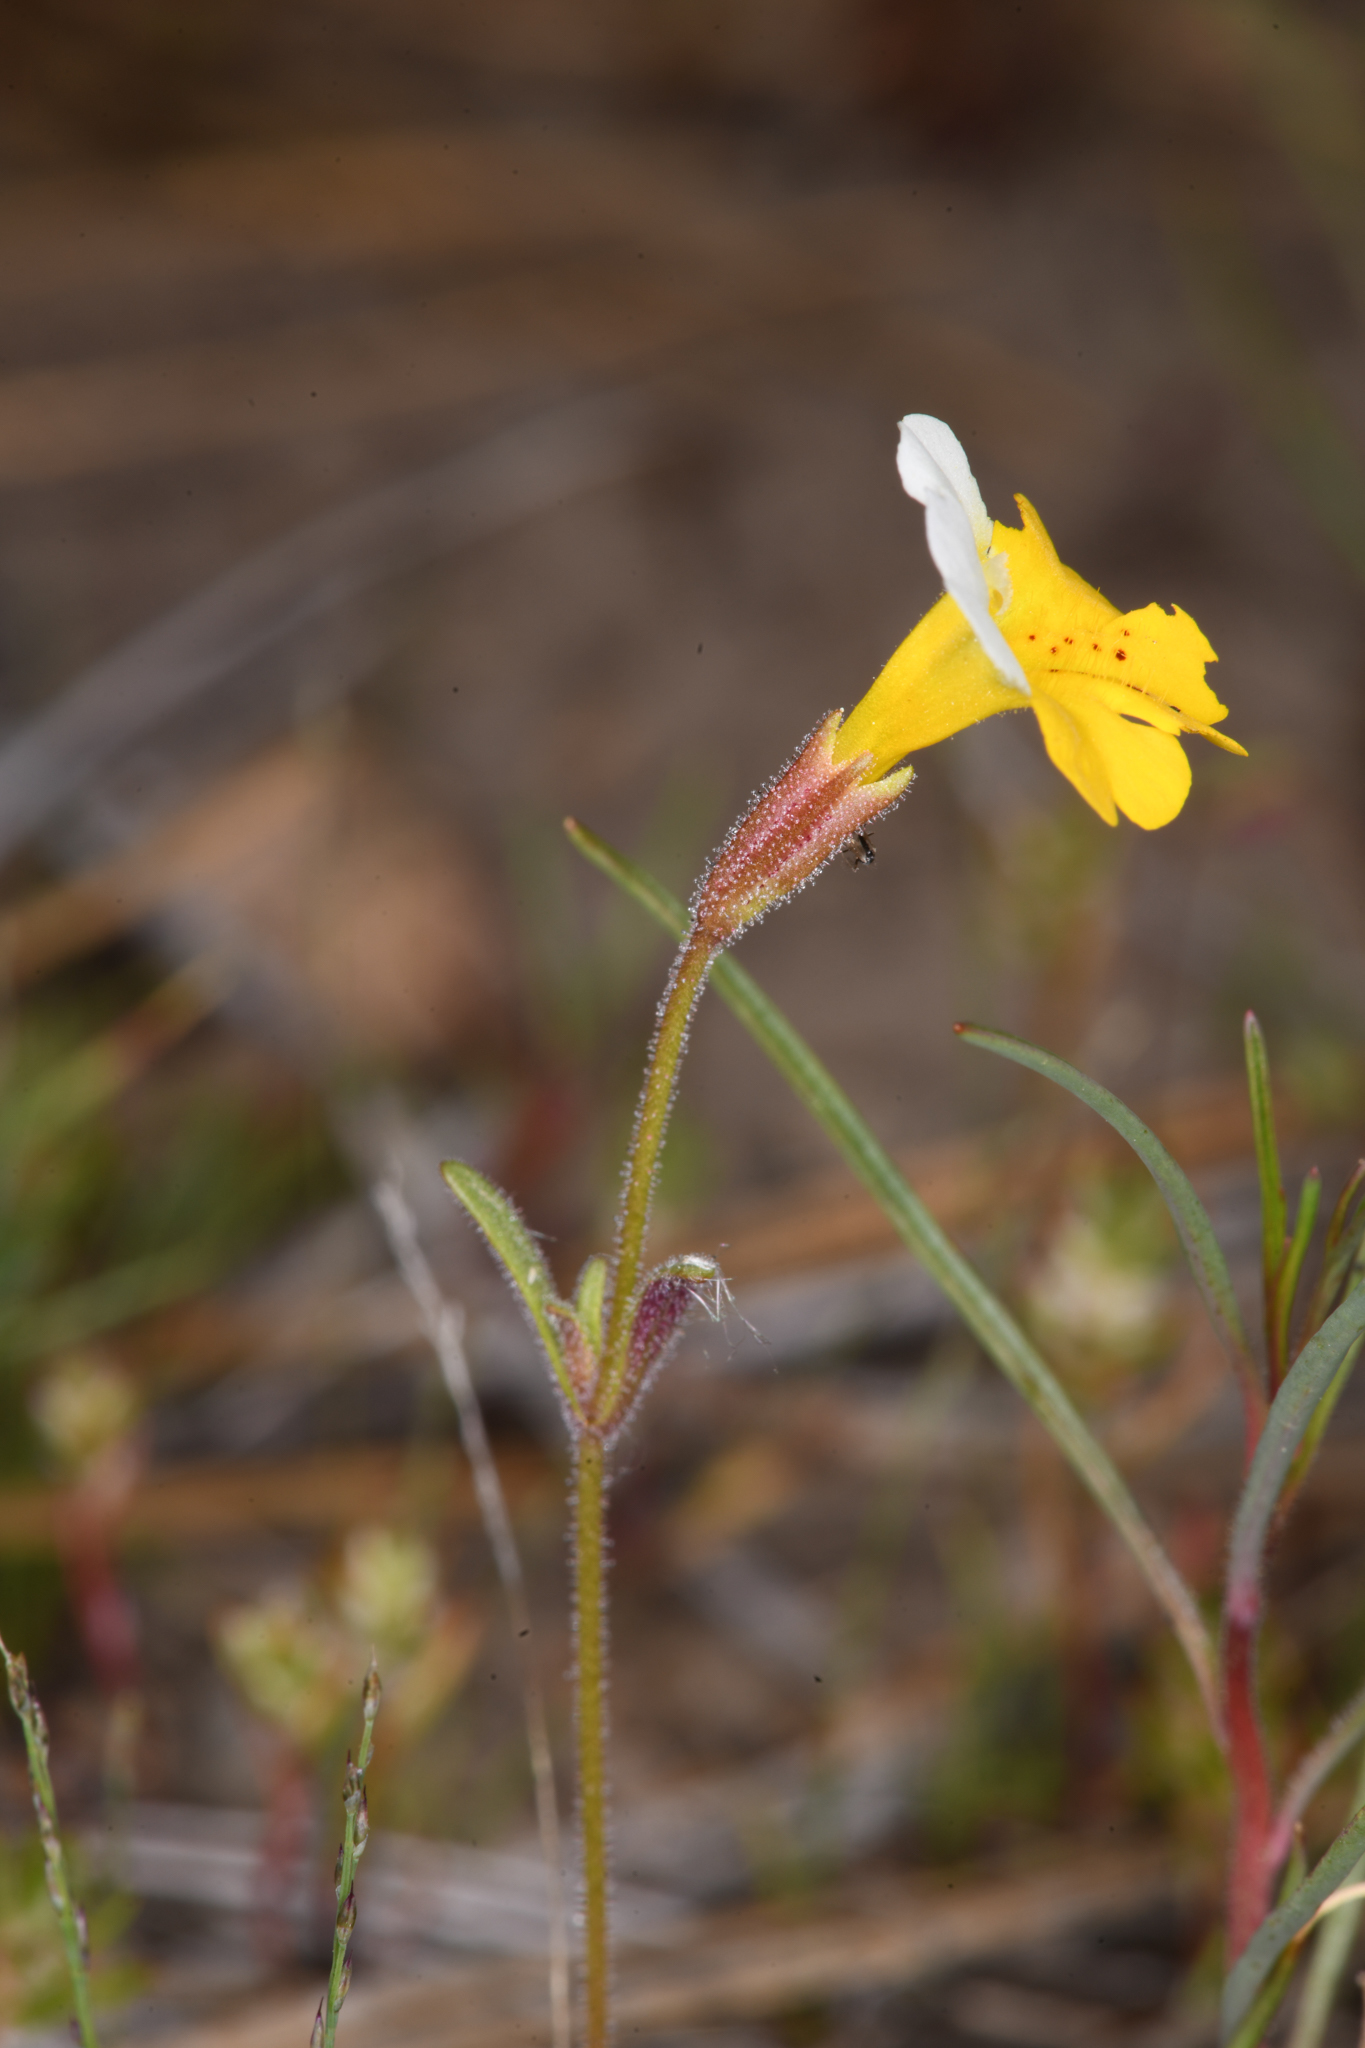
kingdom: Plantae
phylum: Tracheophyta
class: Magnoliopsida
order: Lamiales
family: Phrymaceae
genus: Erythranthe
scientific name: Erythranthe bicolor
